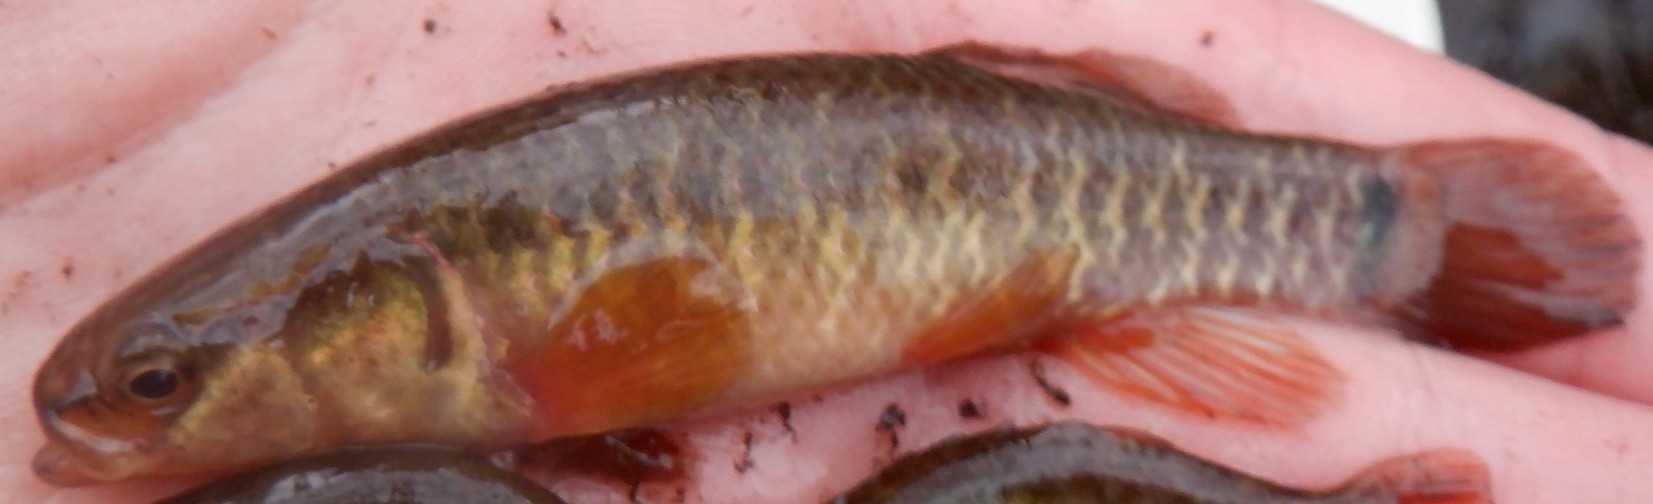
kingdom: Animalia
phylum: Chordata
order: Esociformes
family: Umbridae
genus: Umbra
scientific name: Umbra limi
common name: Central mudminnow
